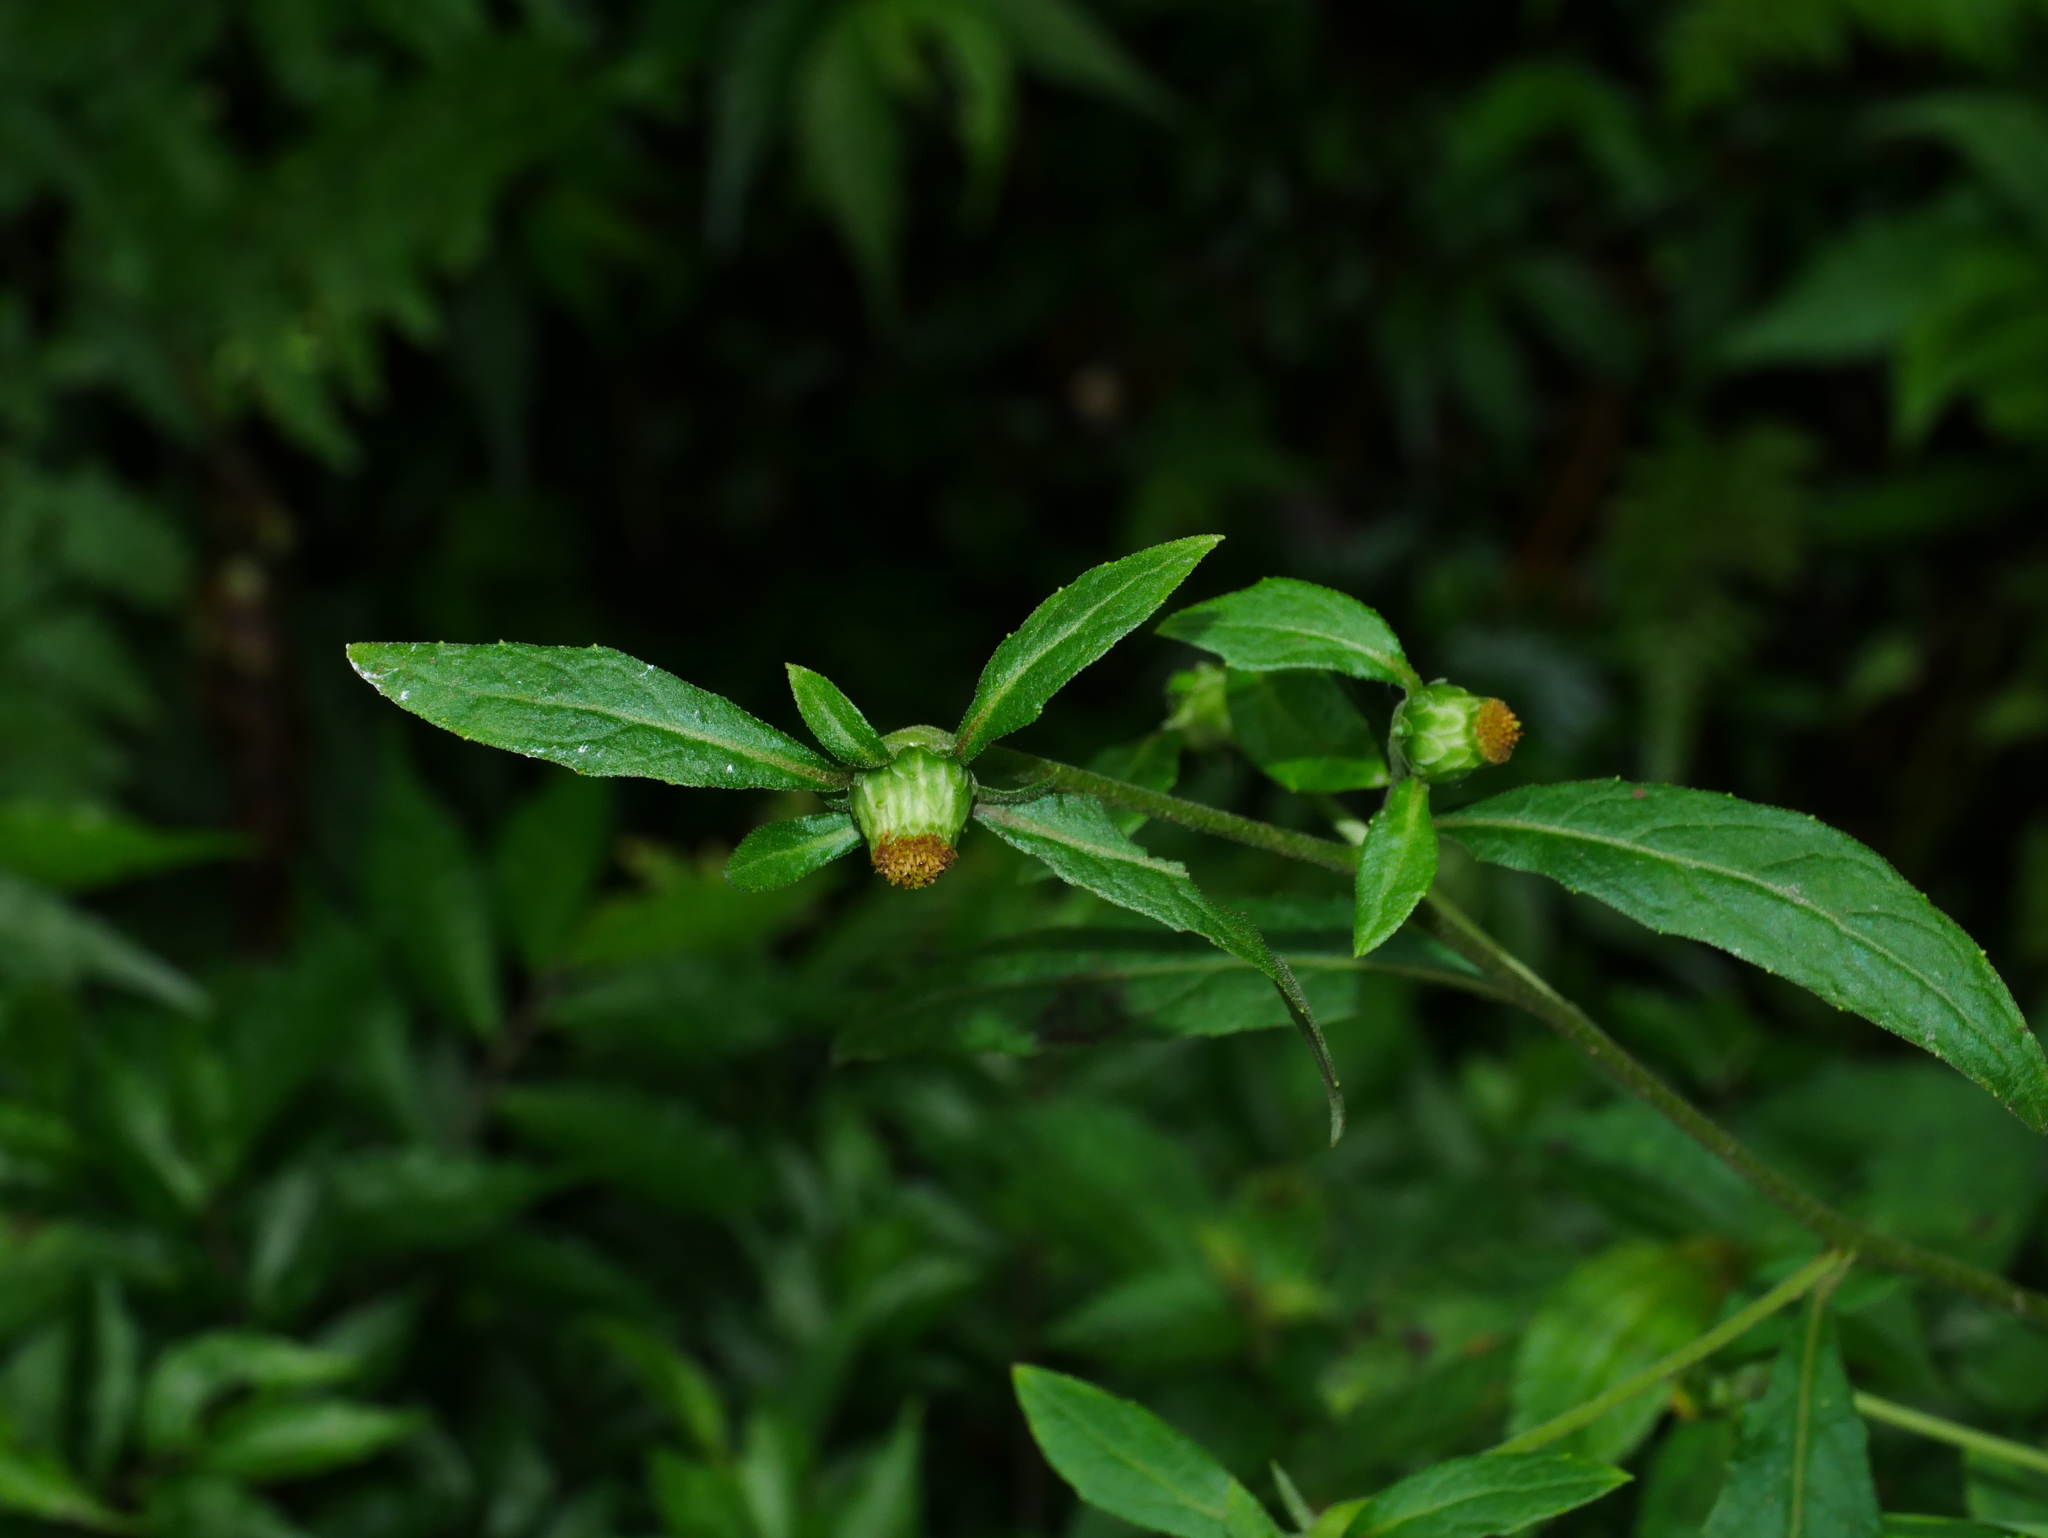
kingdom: Plantae
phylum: Tracheophyta
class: Magnoliopsida
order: Asterales
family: Asteraceae
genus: Carpesium
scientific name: Carpesium divaricatum
